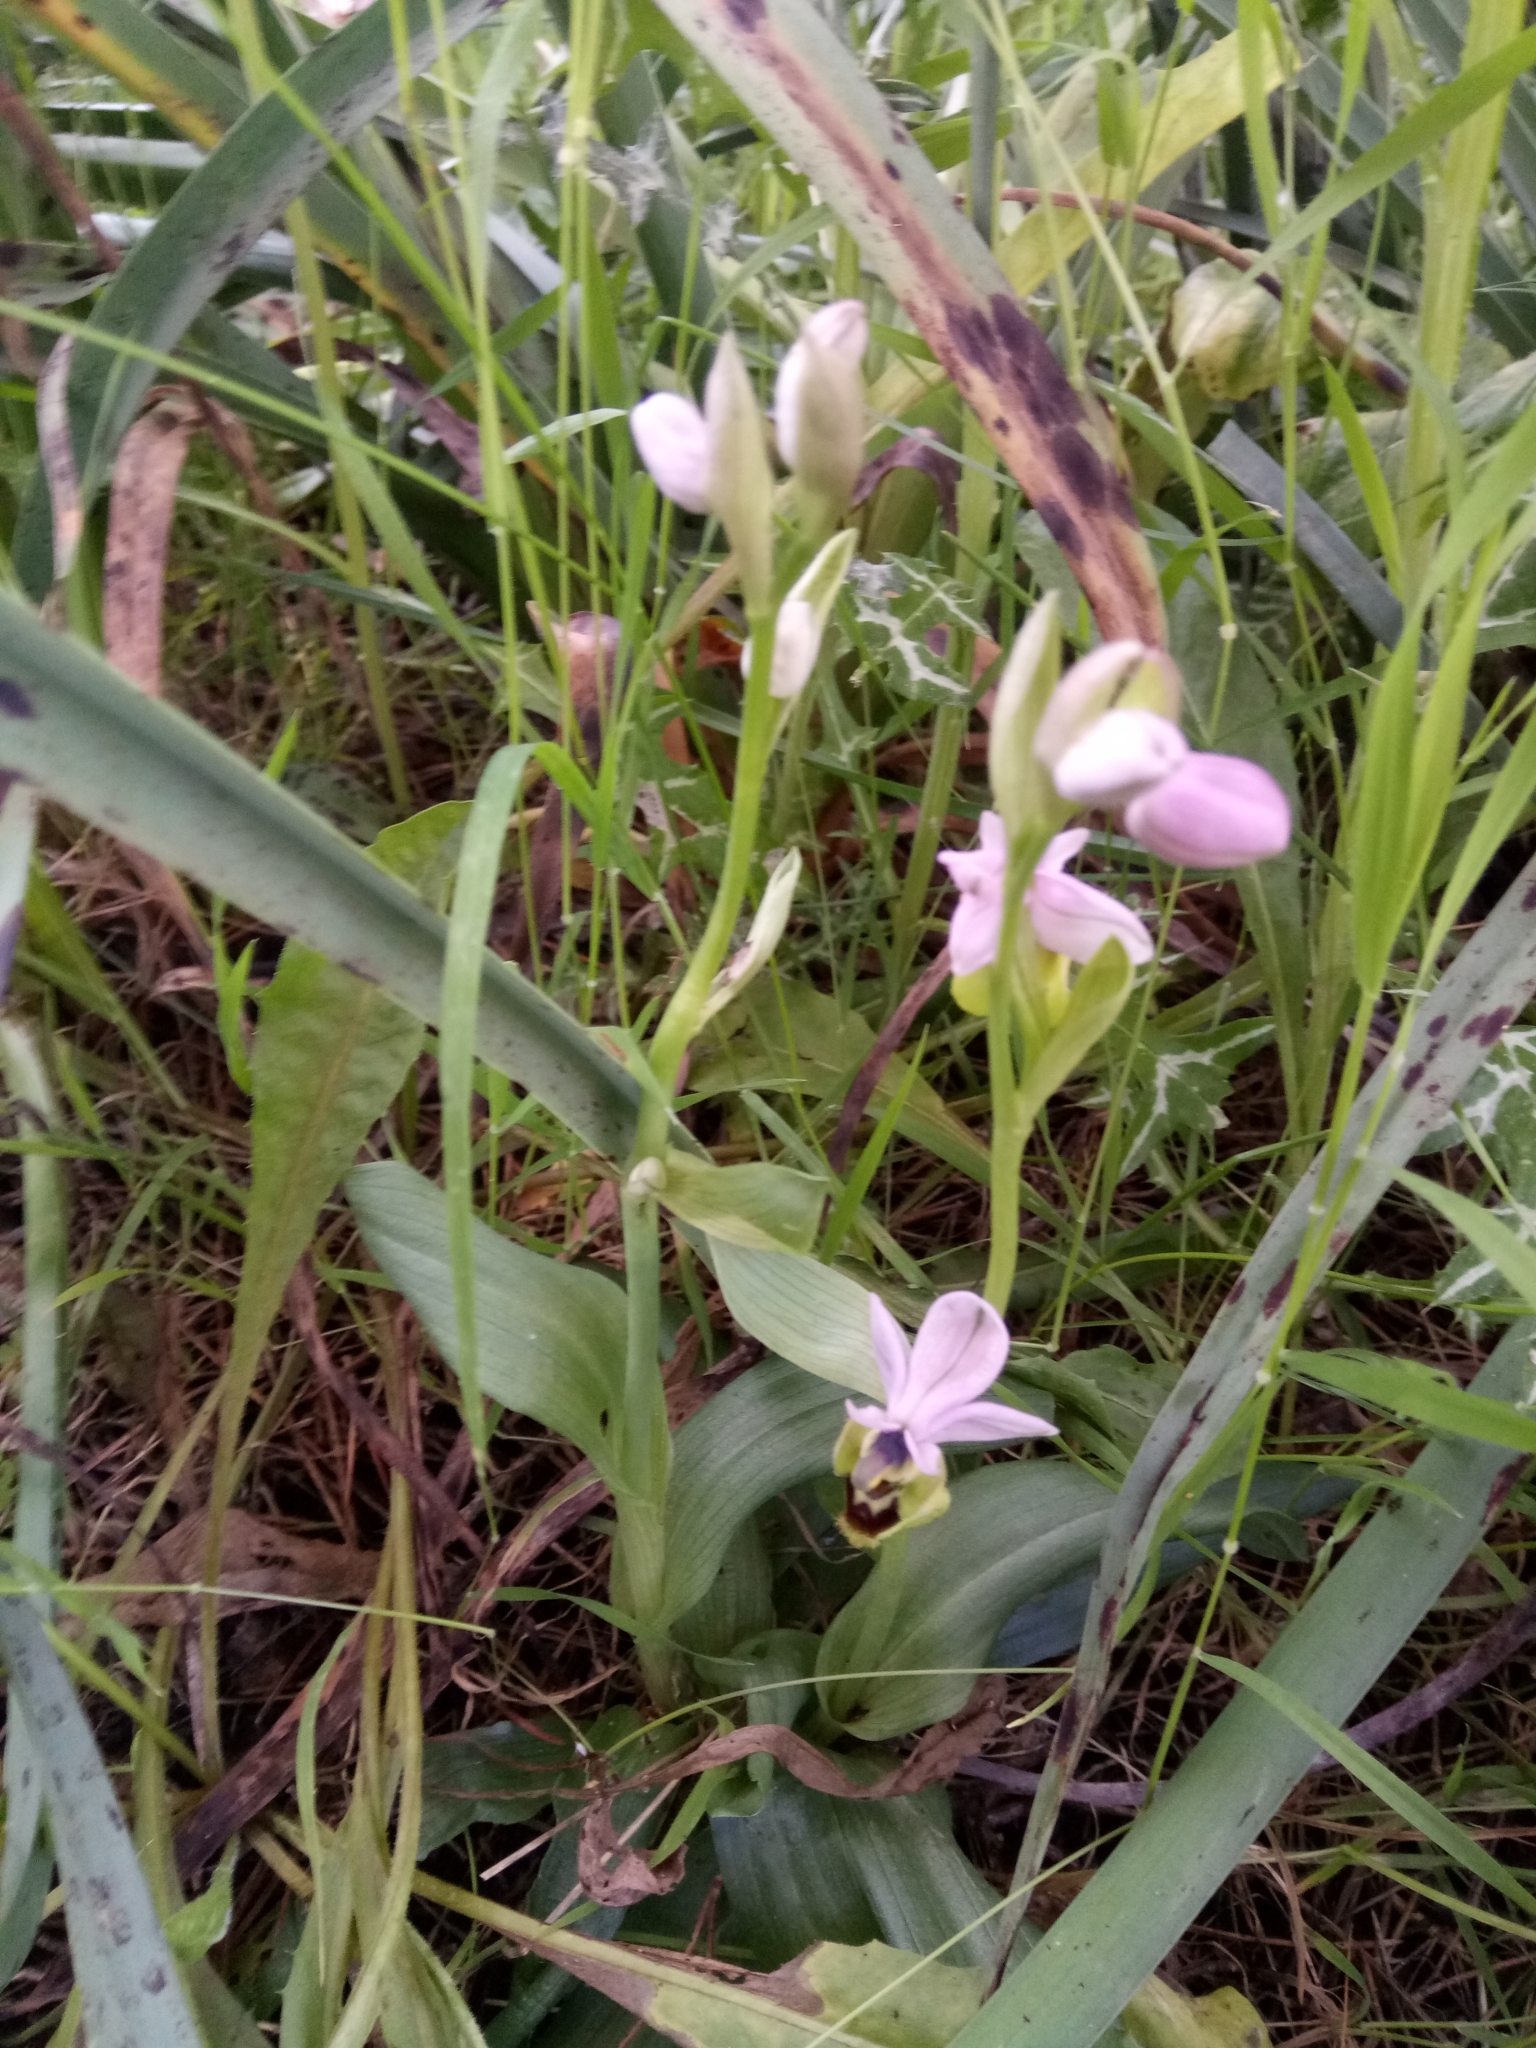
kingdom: Plantae
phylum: Tracheophyta
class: Liliopsida
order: Asparagales
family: Orchidaceae
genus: Ophrys
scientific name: Ophrys tenthredinifera
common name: Sawfly orchid
